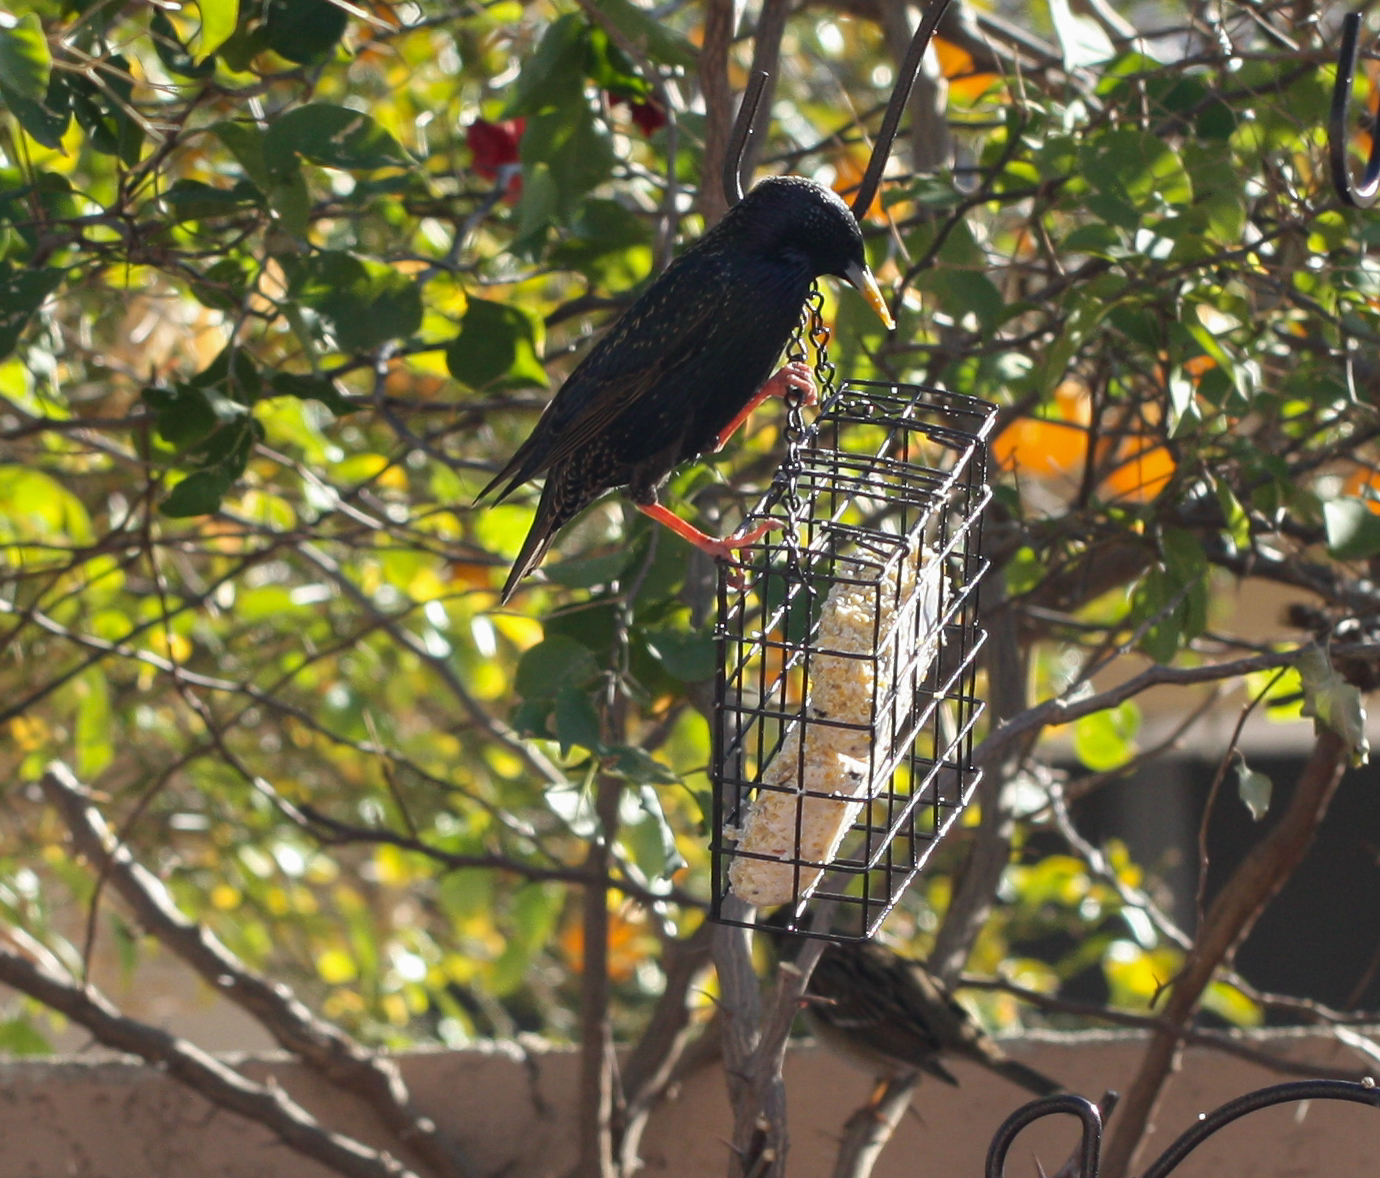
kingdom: Animalia
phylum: Chordata
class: Aves
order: Passeriformes
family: Sturnidae
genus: Sturnus
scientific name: Sturnus vulgaris
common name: Common starling
